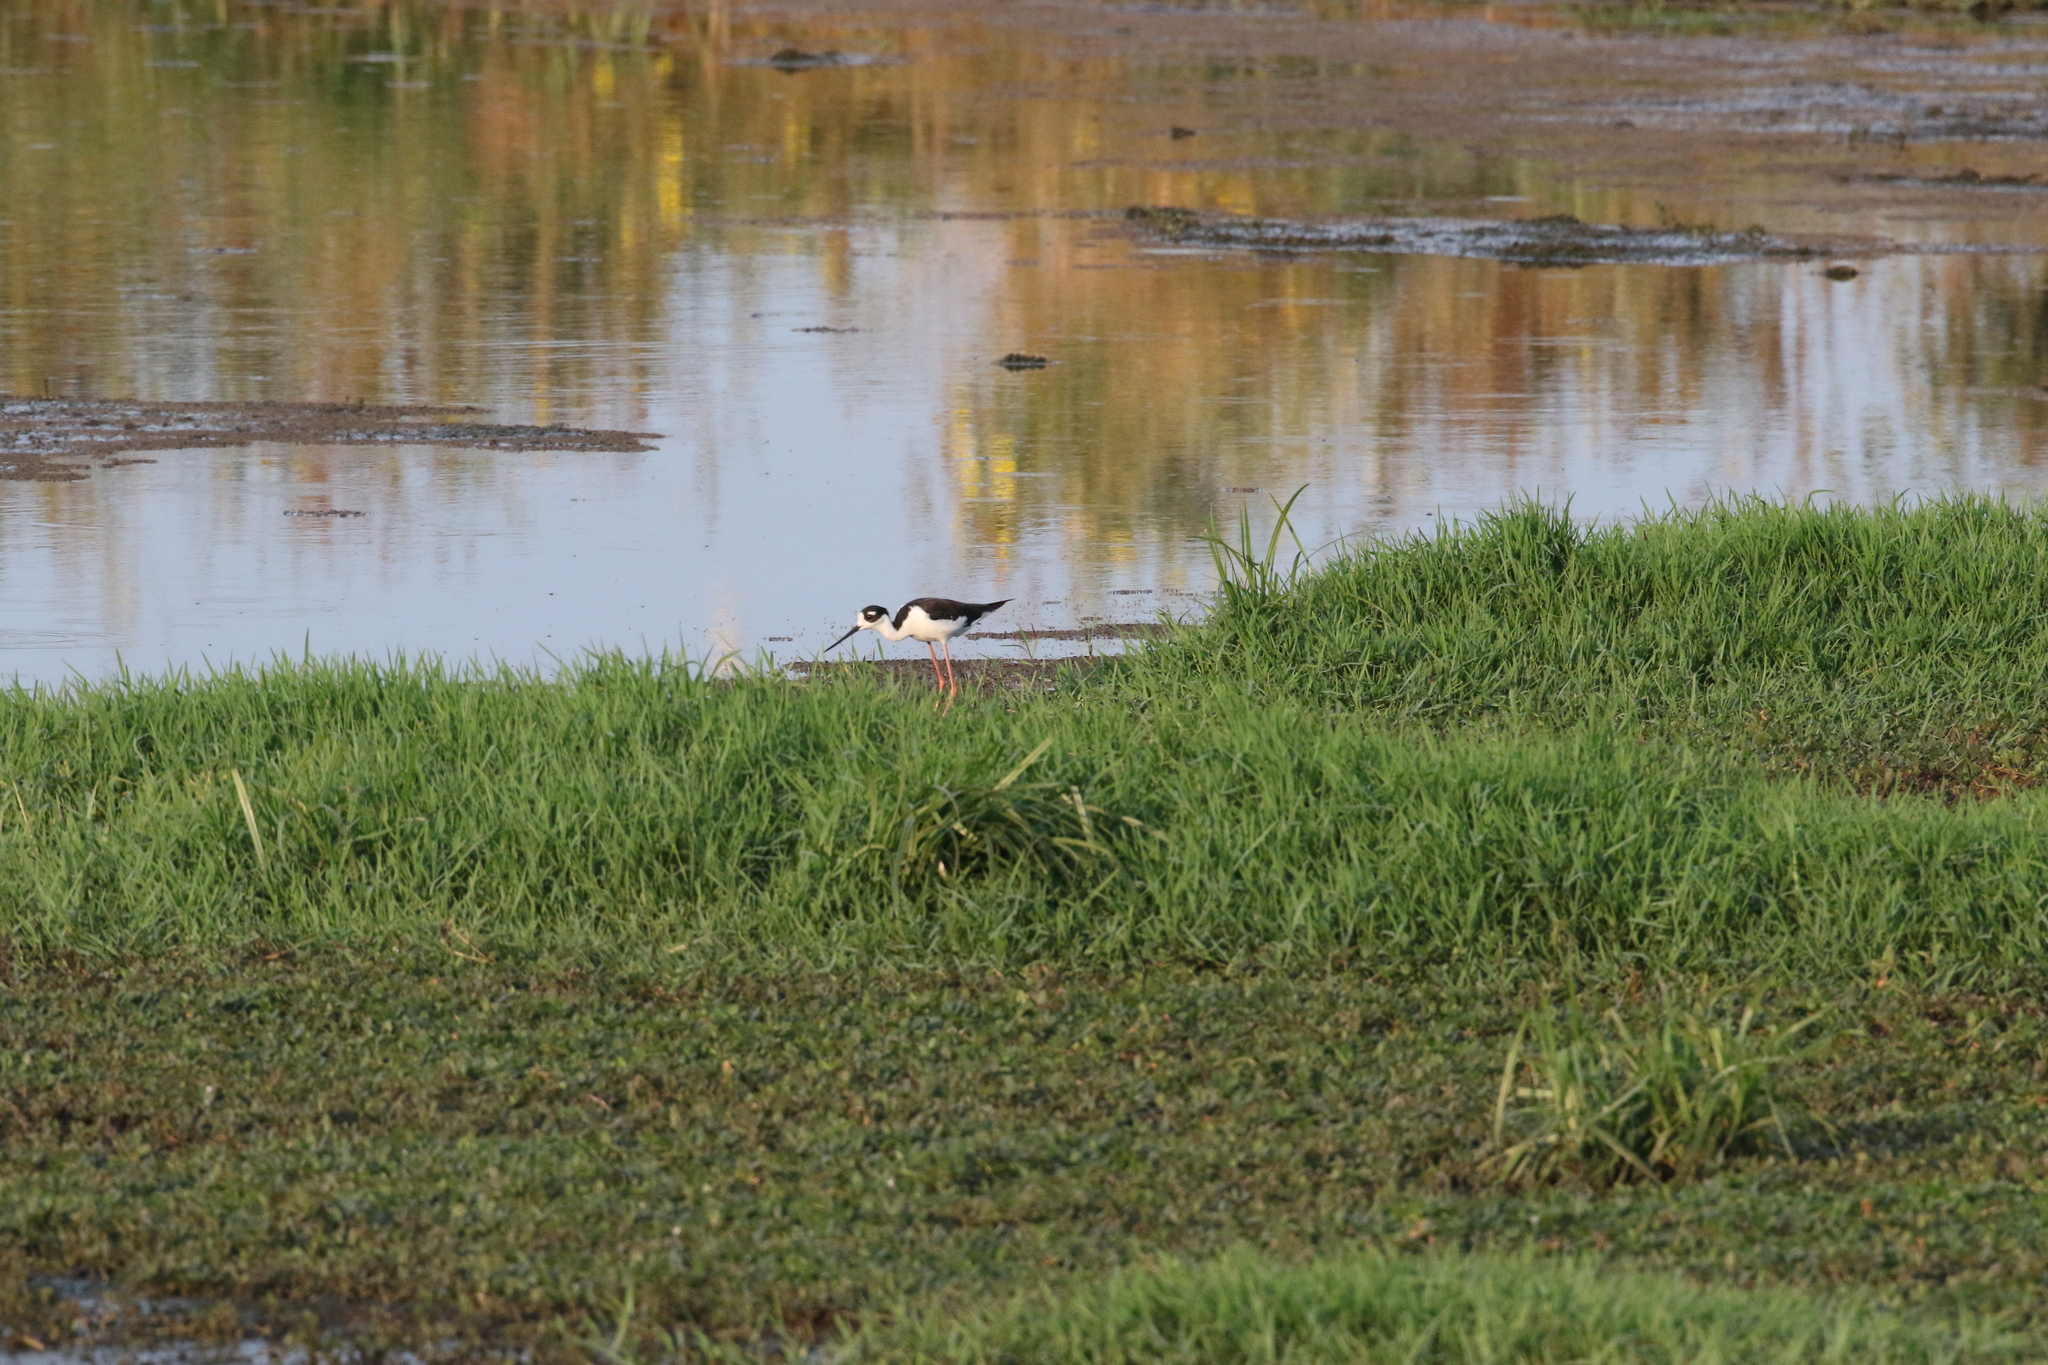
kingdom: Animalia
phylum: Chordata
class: Aves
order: Charadriiformes
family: Recurvirostridae
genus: Himantopus
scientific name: Himantopus mexicanus
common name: Black-necked stilt
